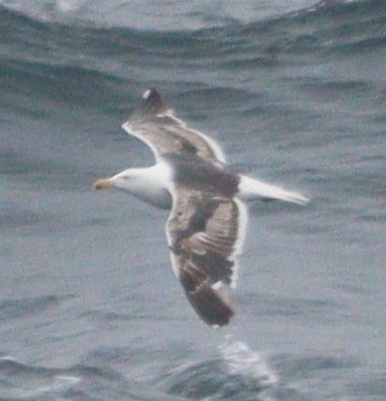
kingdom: Animalia
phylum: Chordata
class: Aves
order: Charadriiformes
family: Laridae
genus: Larus
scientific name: Larus marinus
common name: Great black-backed gull
